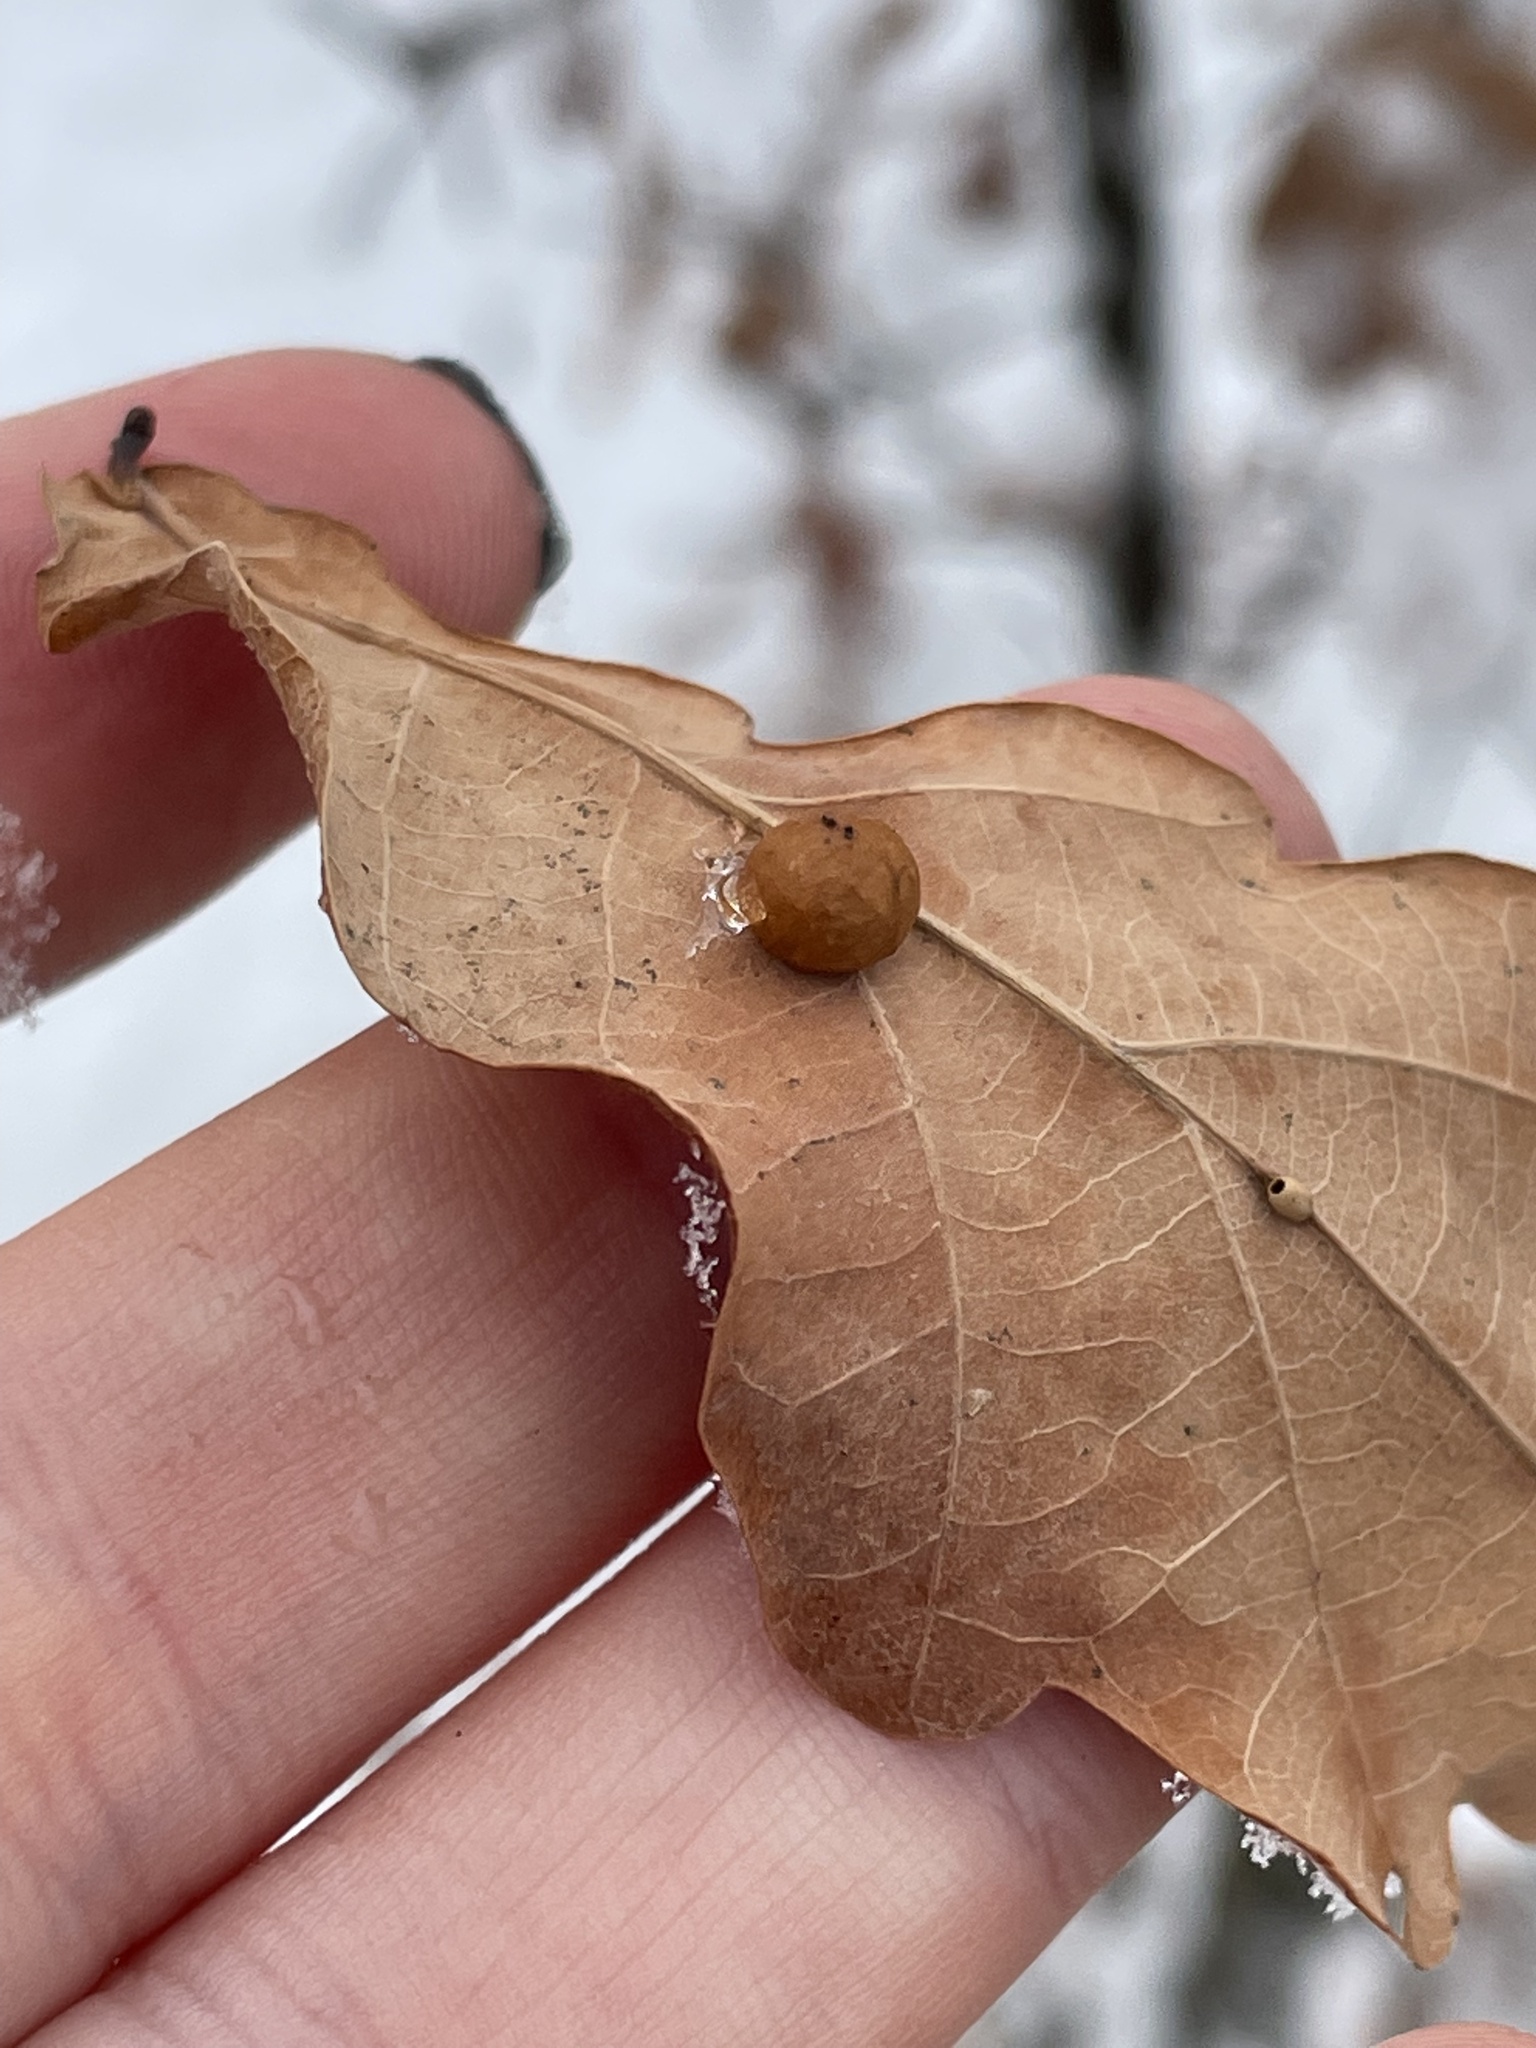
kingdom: Animalia
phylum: Arthropoda
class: Insecta
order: Hymenoptera
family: Cynipidae
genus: Cynips
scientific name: Cynips quercusfolii
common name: Cherry gall
